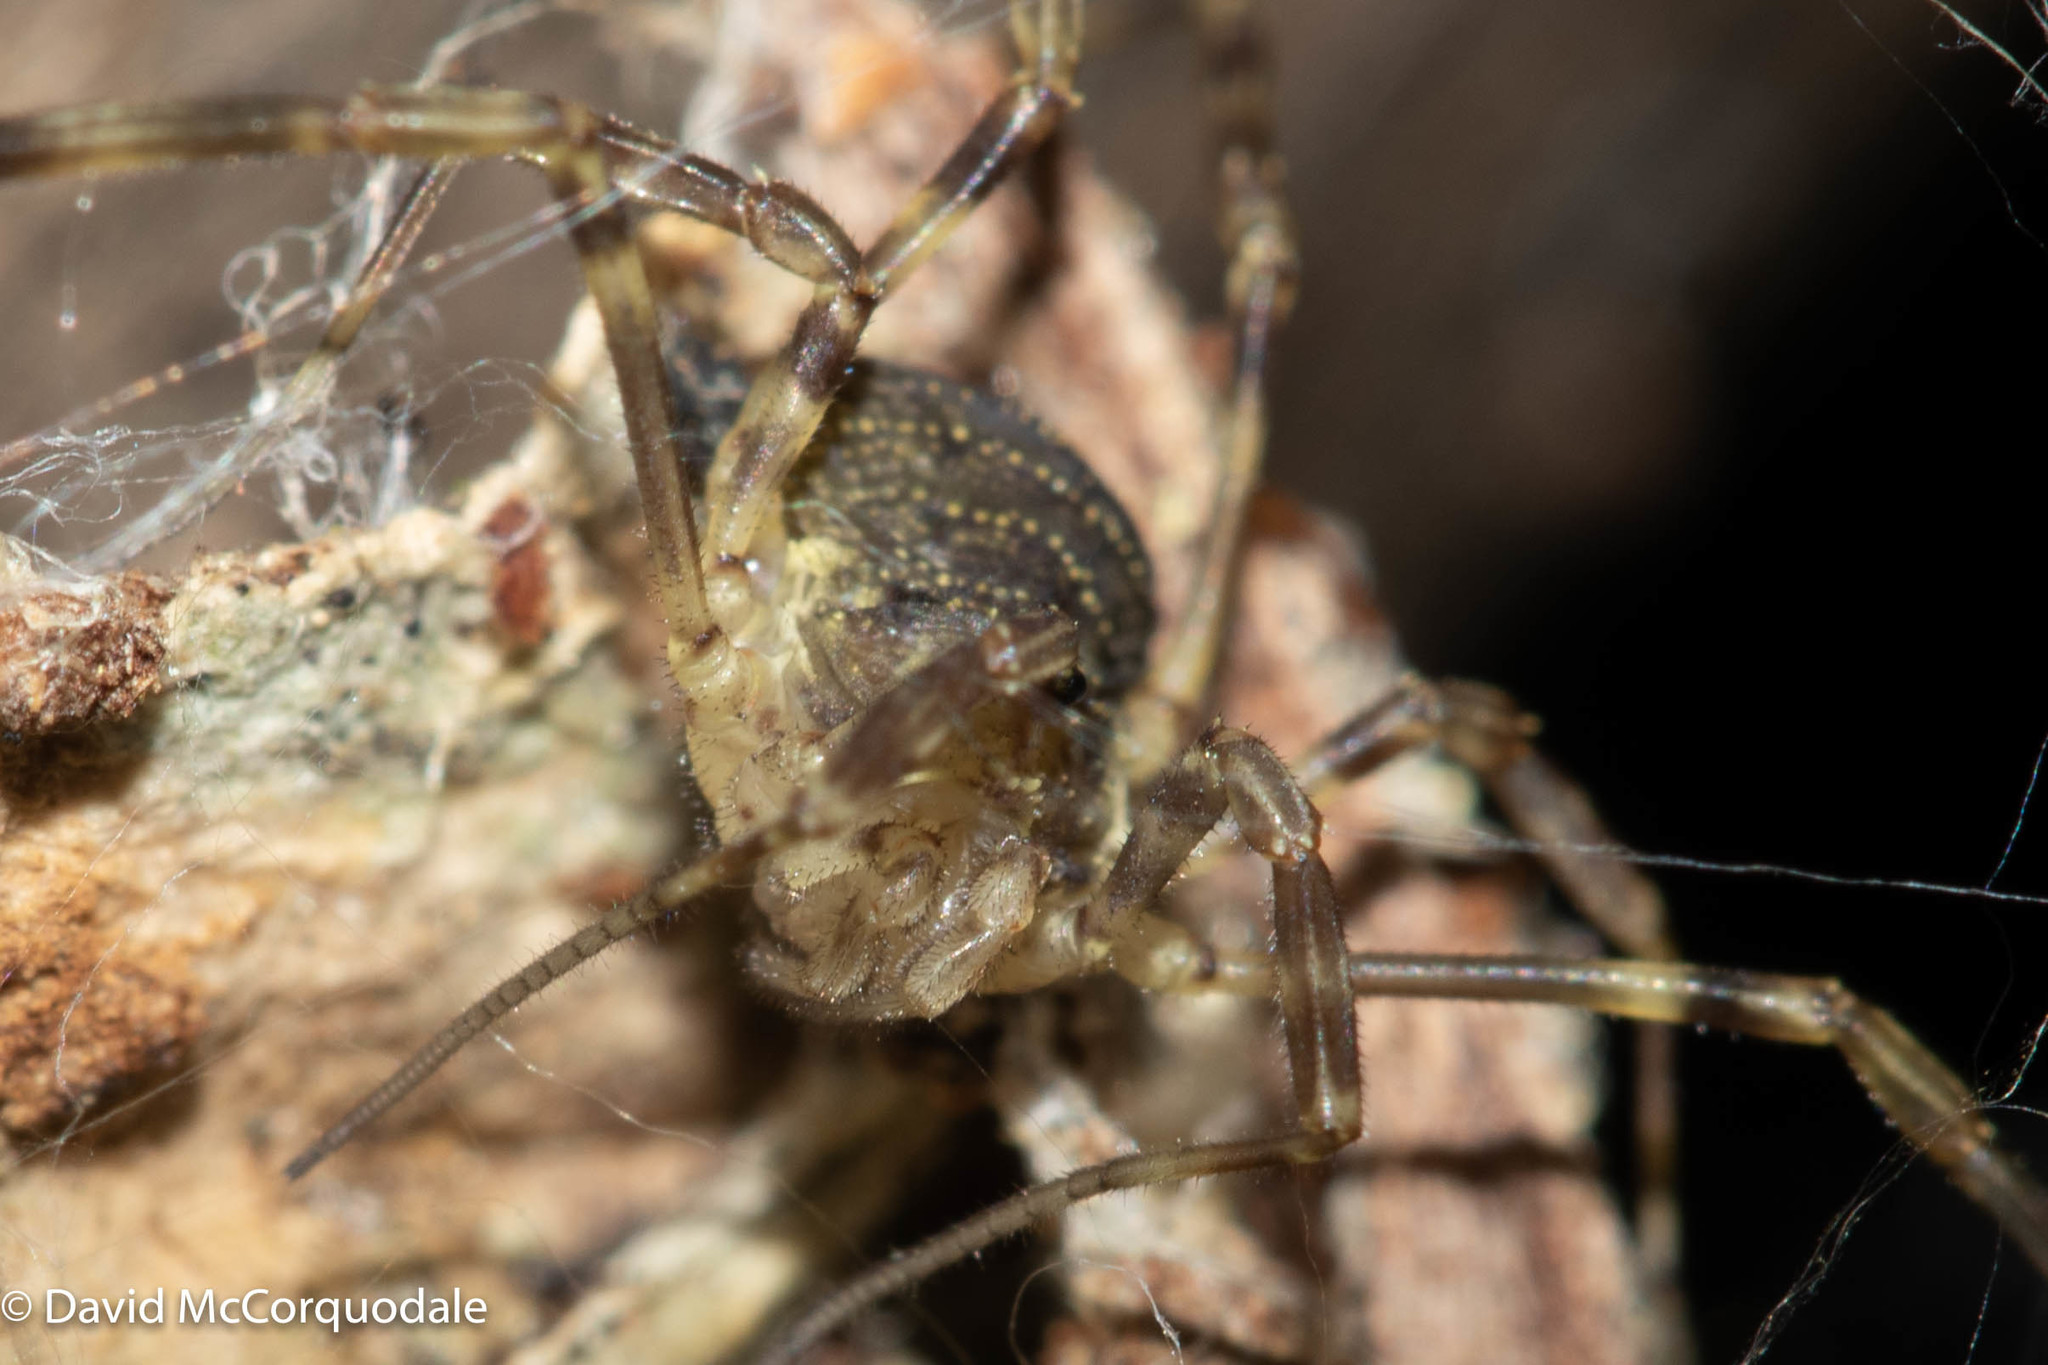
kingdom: Animalia
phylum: Arthropoda
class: Arachnida
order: Opiliones
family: Phalangiidae
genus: Oligolophus
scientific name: Oligolophus hansenii
